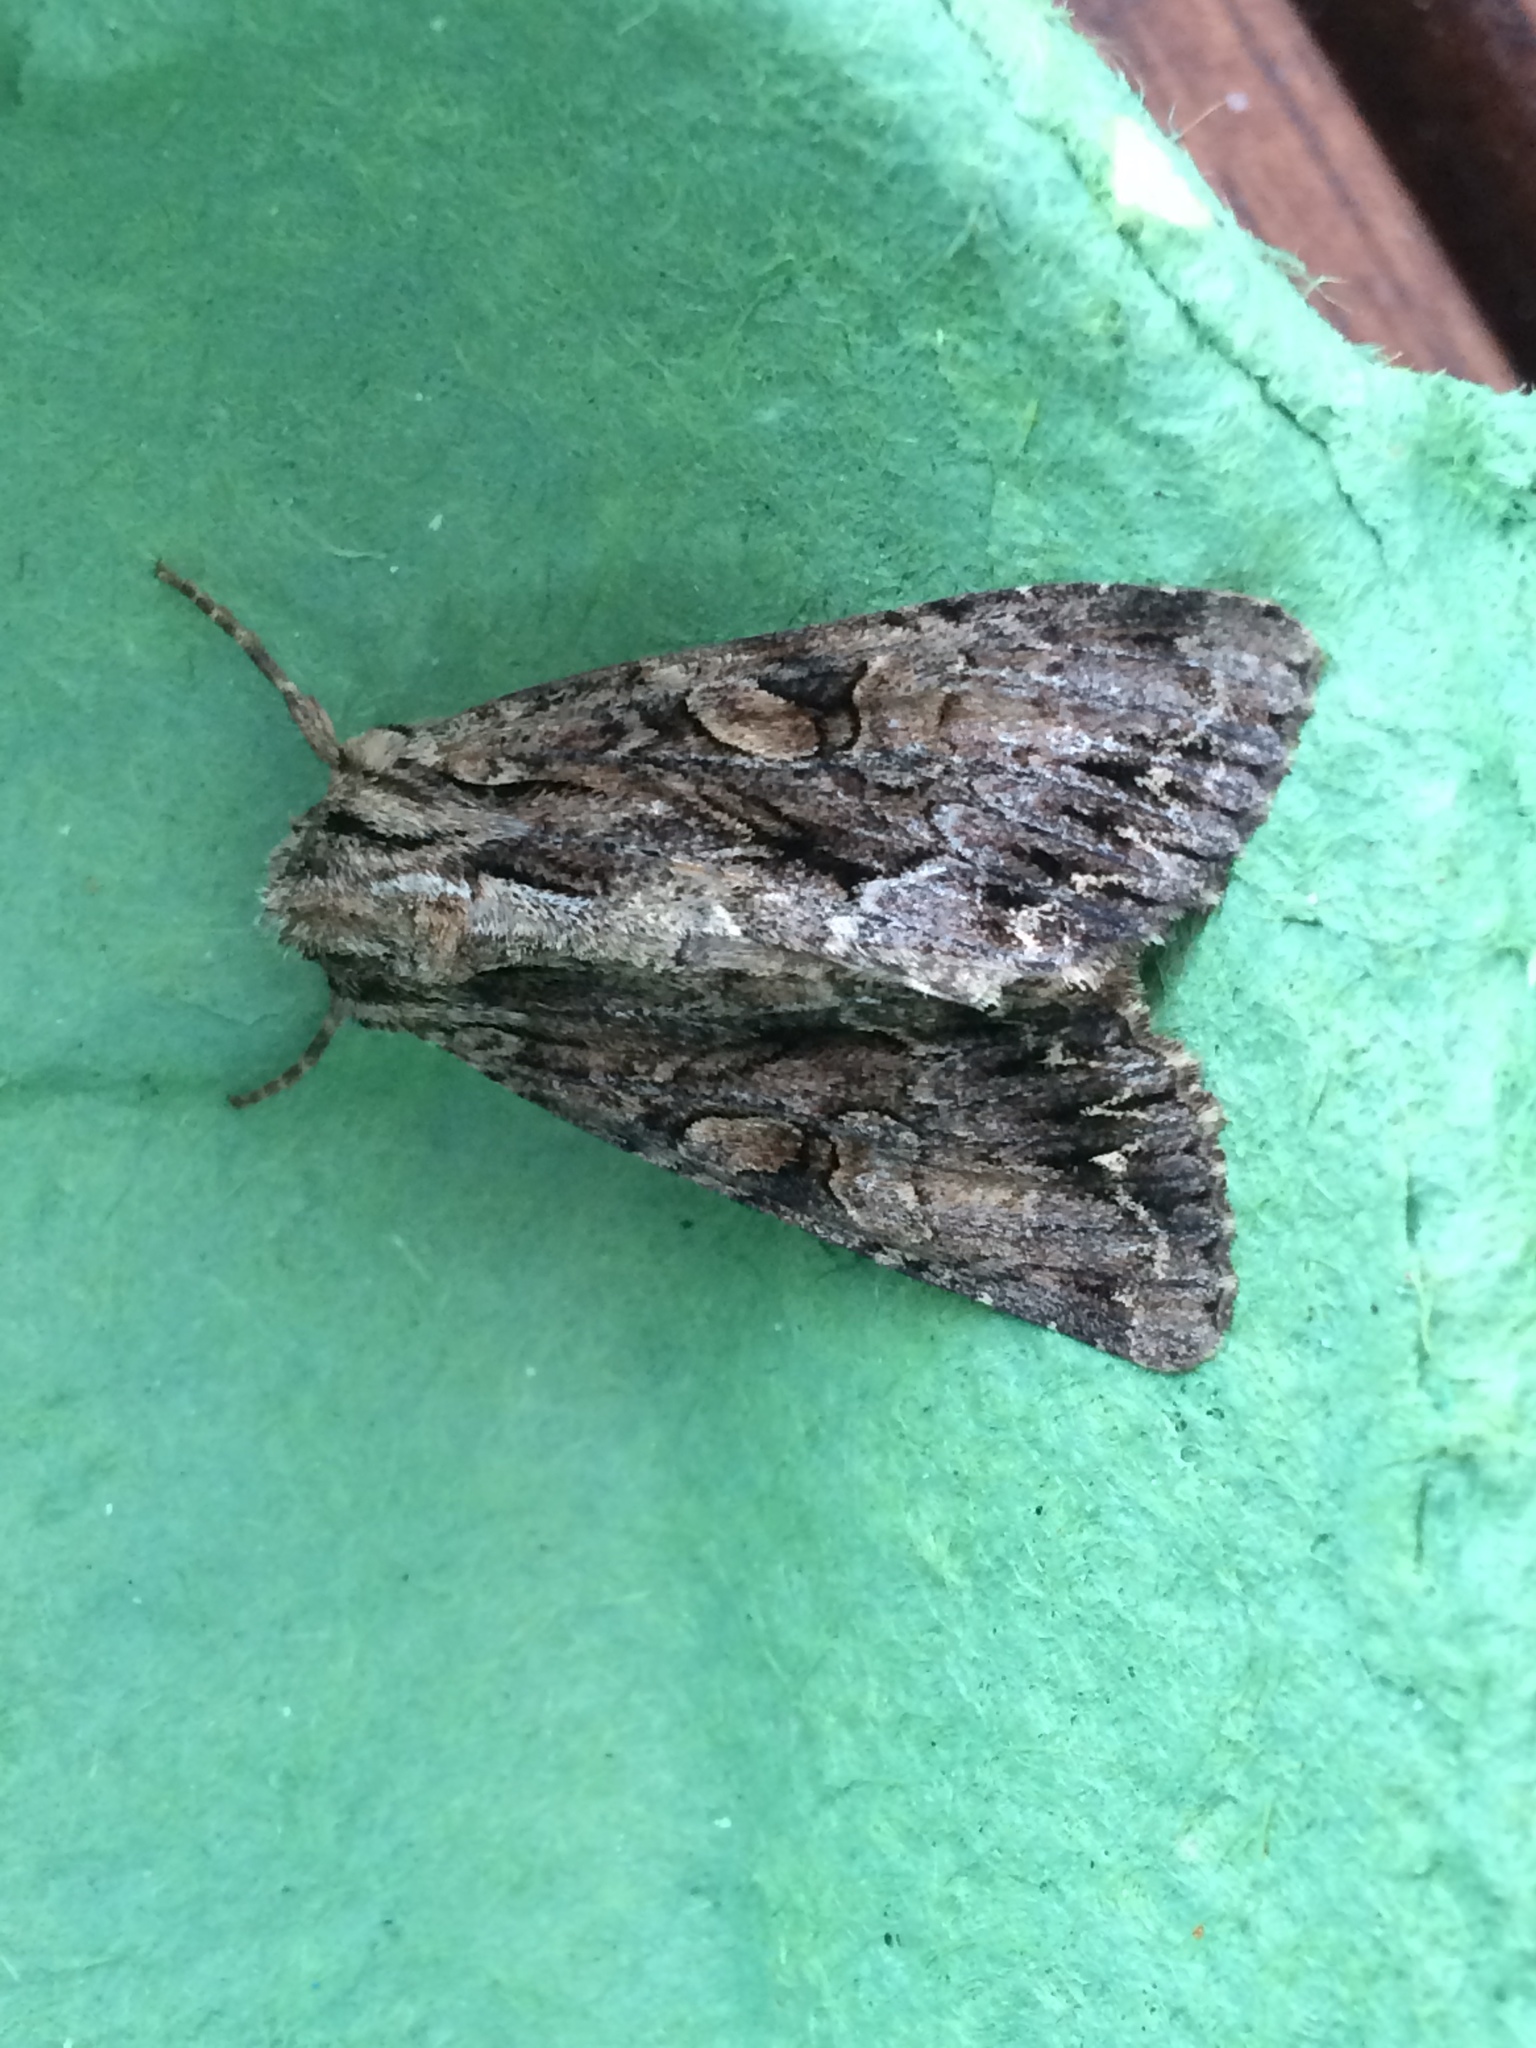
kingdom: Animalia
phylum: Arthropoda
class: Insecta
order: Lepidoptera
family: Noctuidae
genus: Apamea
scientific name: Apamea monoglypha
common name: Dark arches
